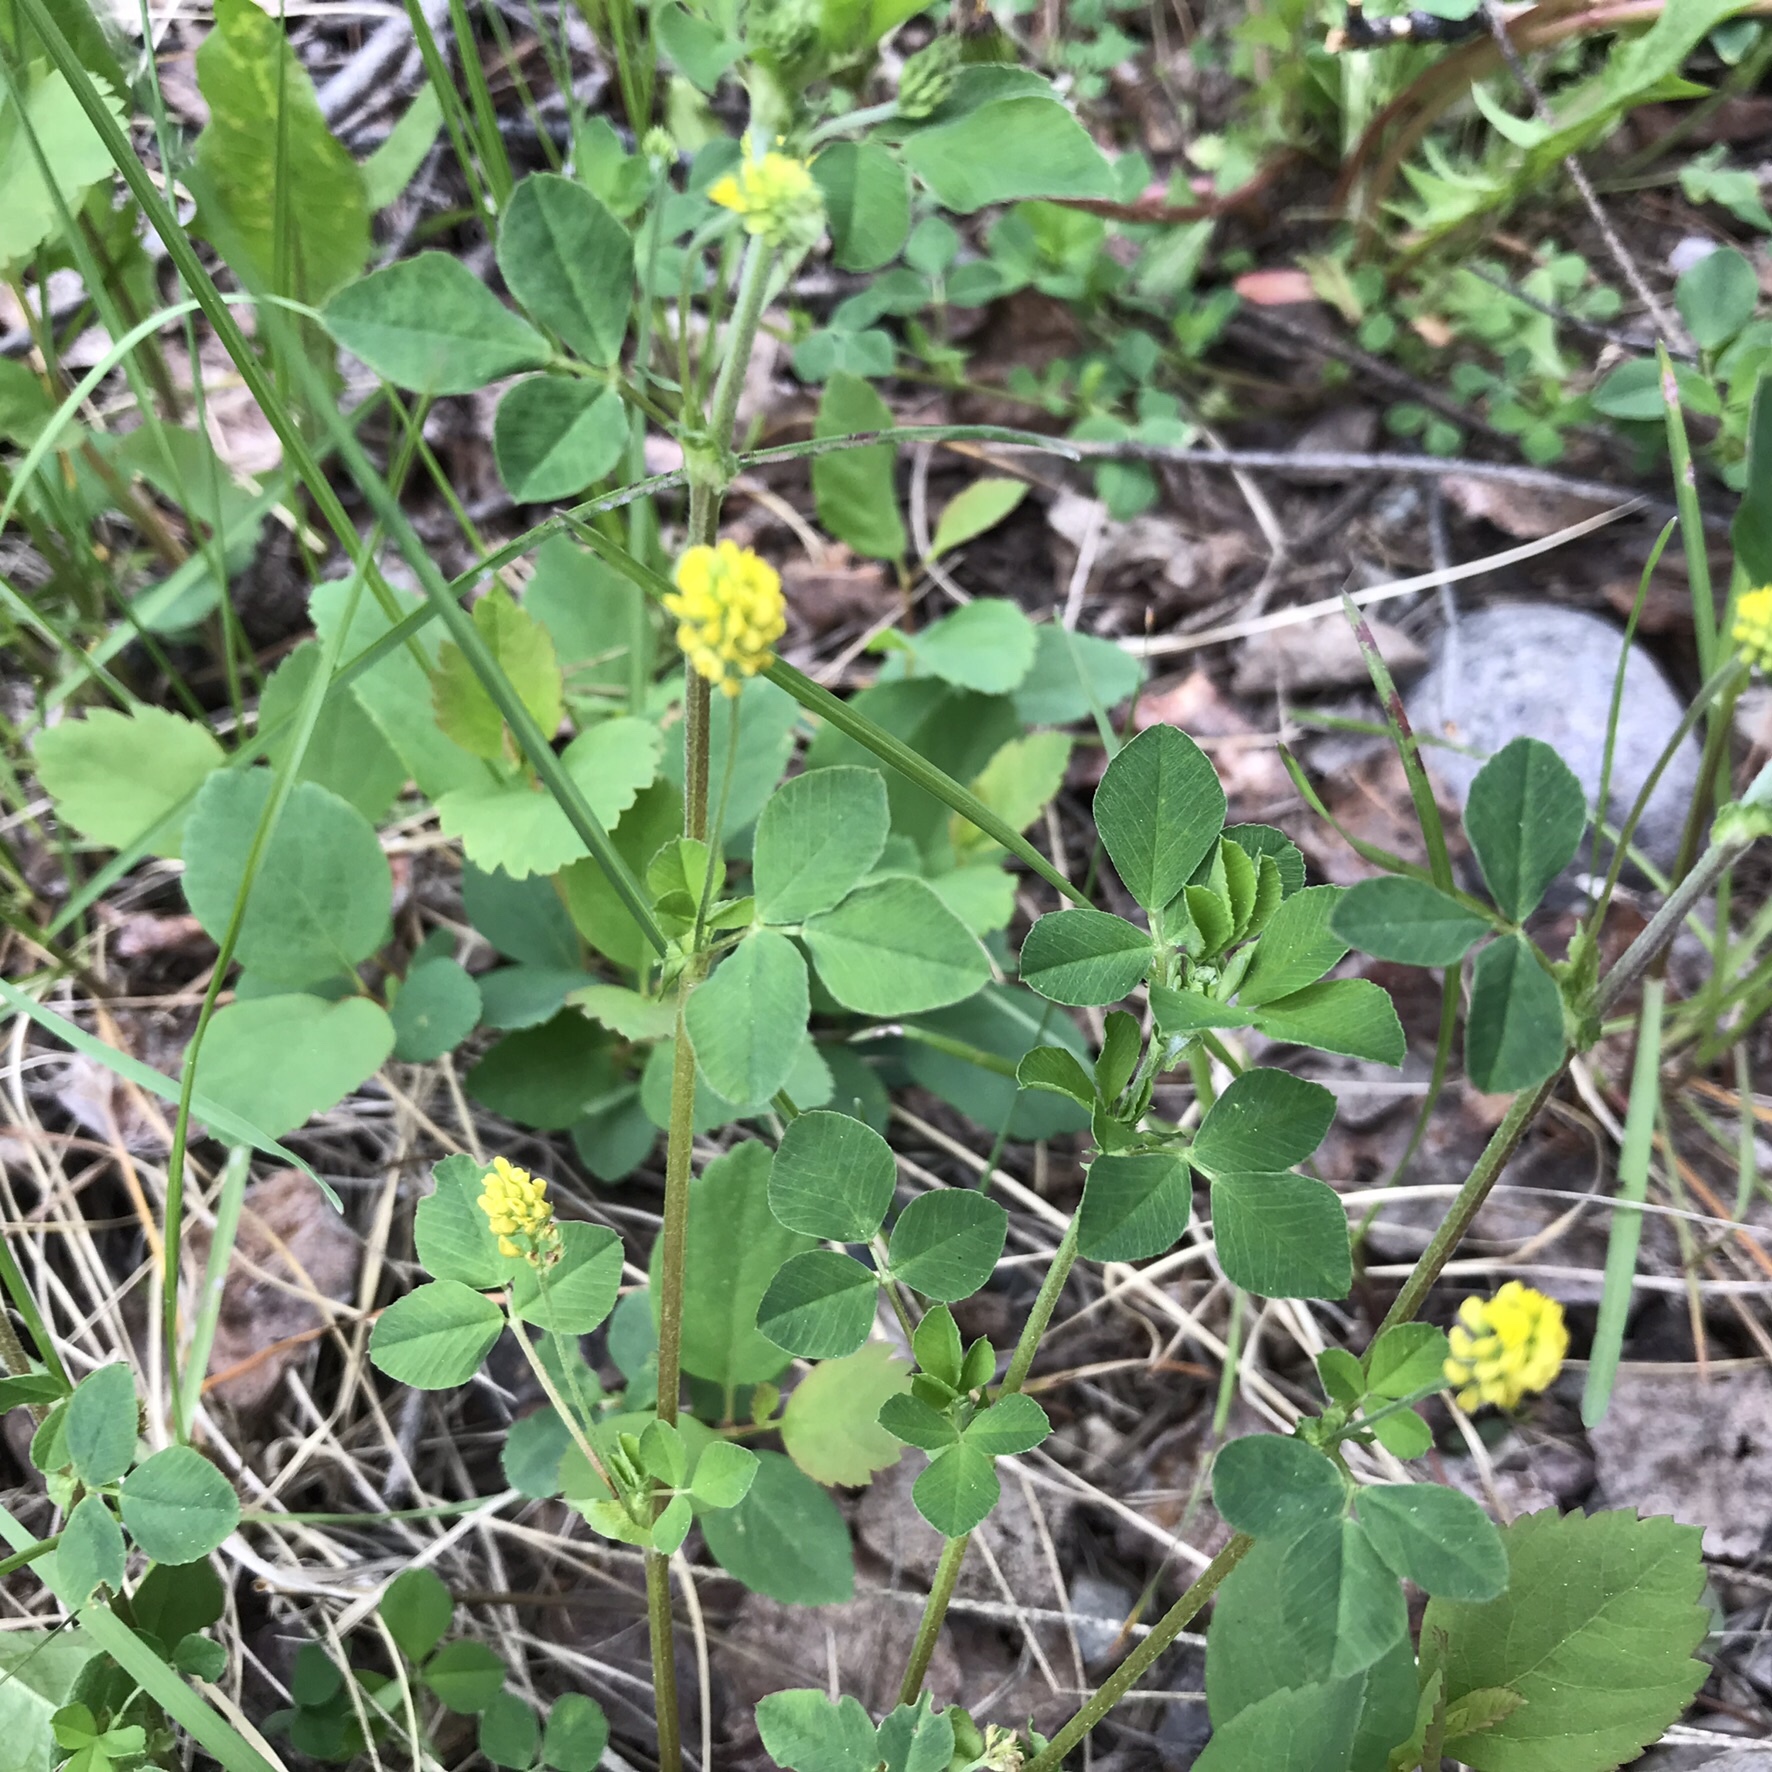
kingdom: Plantae
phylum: Tracheophyta
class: Magnoliopsida
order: Fabales
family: Fabaceae
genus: Medicago
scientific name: Medicago lupulina
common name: Black medick
